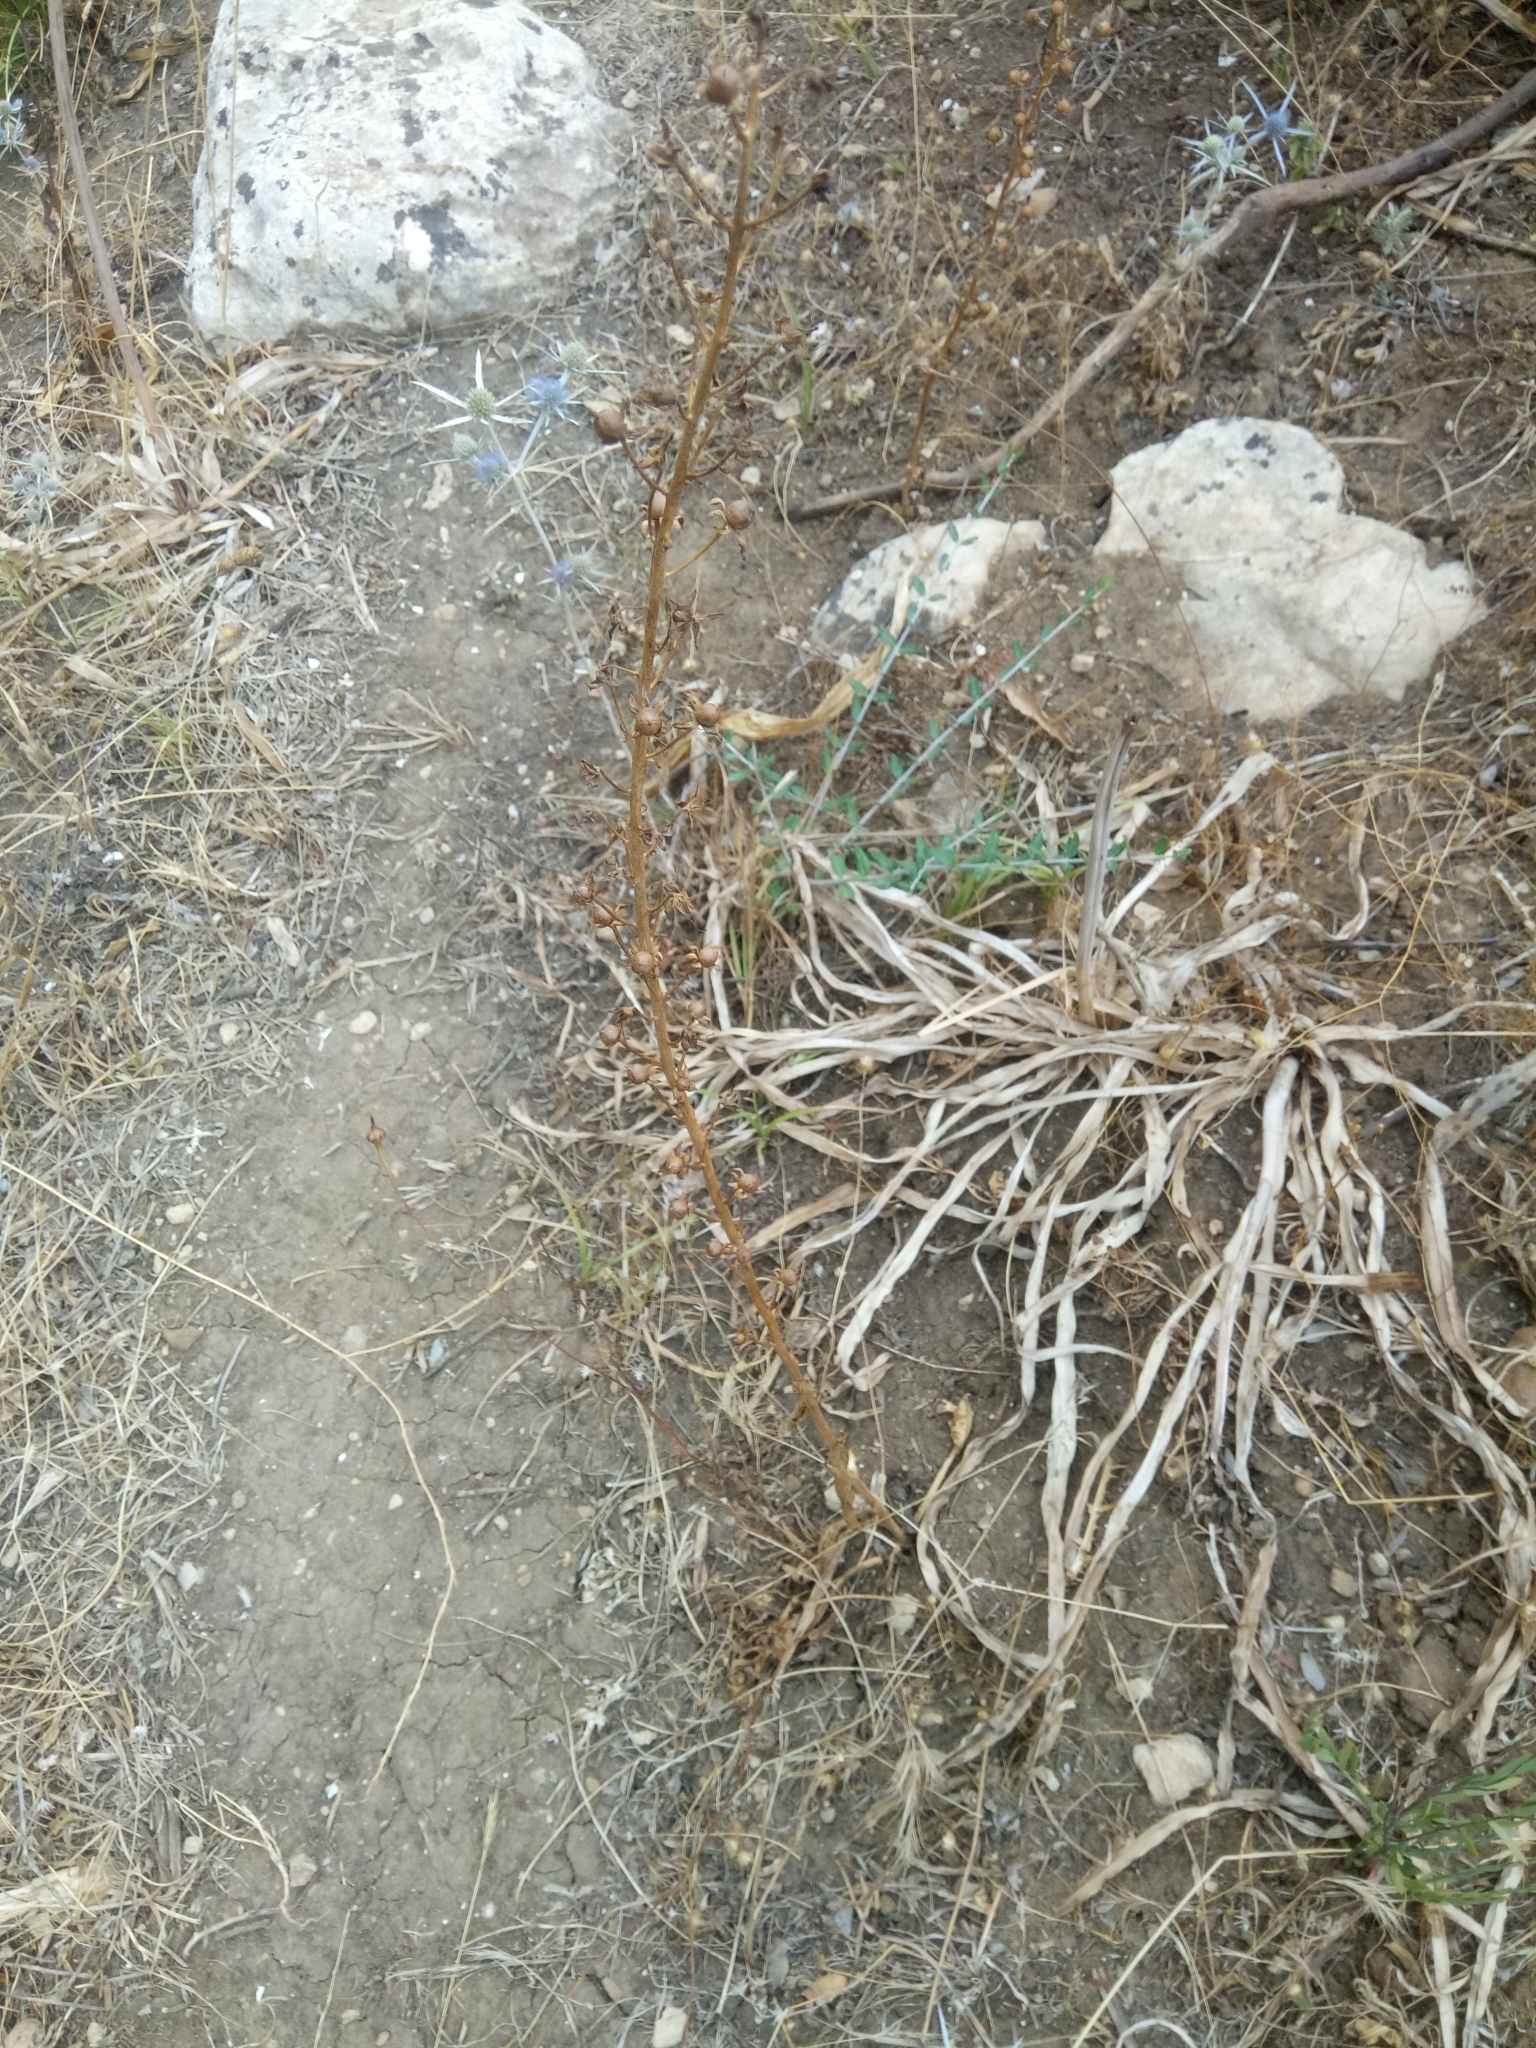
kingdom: Plantae
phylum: Tracheophyta
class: Magnoliopsida
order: Lamiales
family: Scrophulariaceae
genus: Scrophularia
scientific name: Scrophularia canina
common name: French figwort
